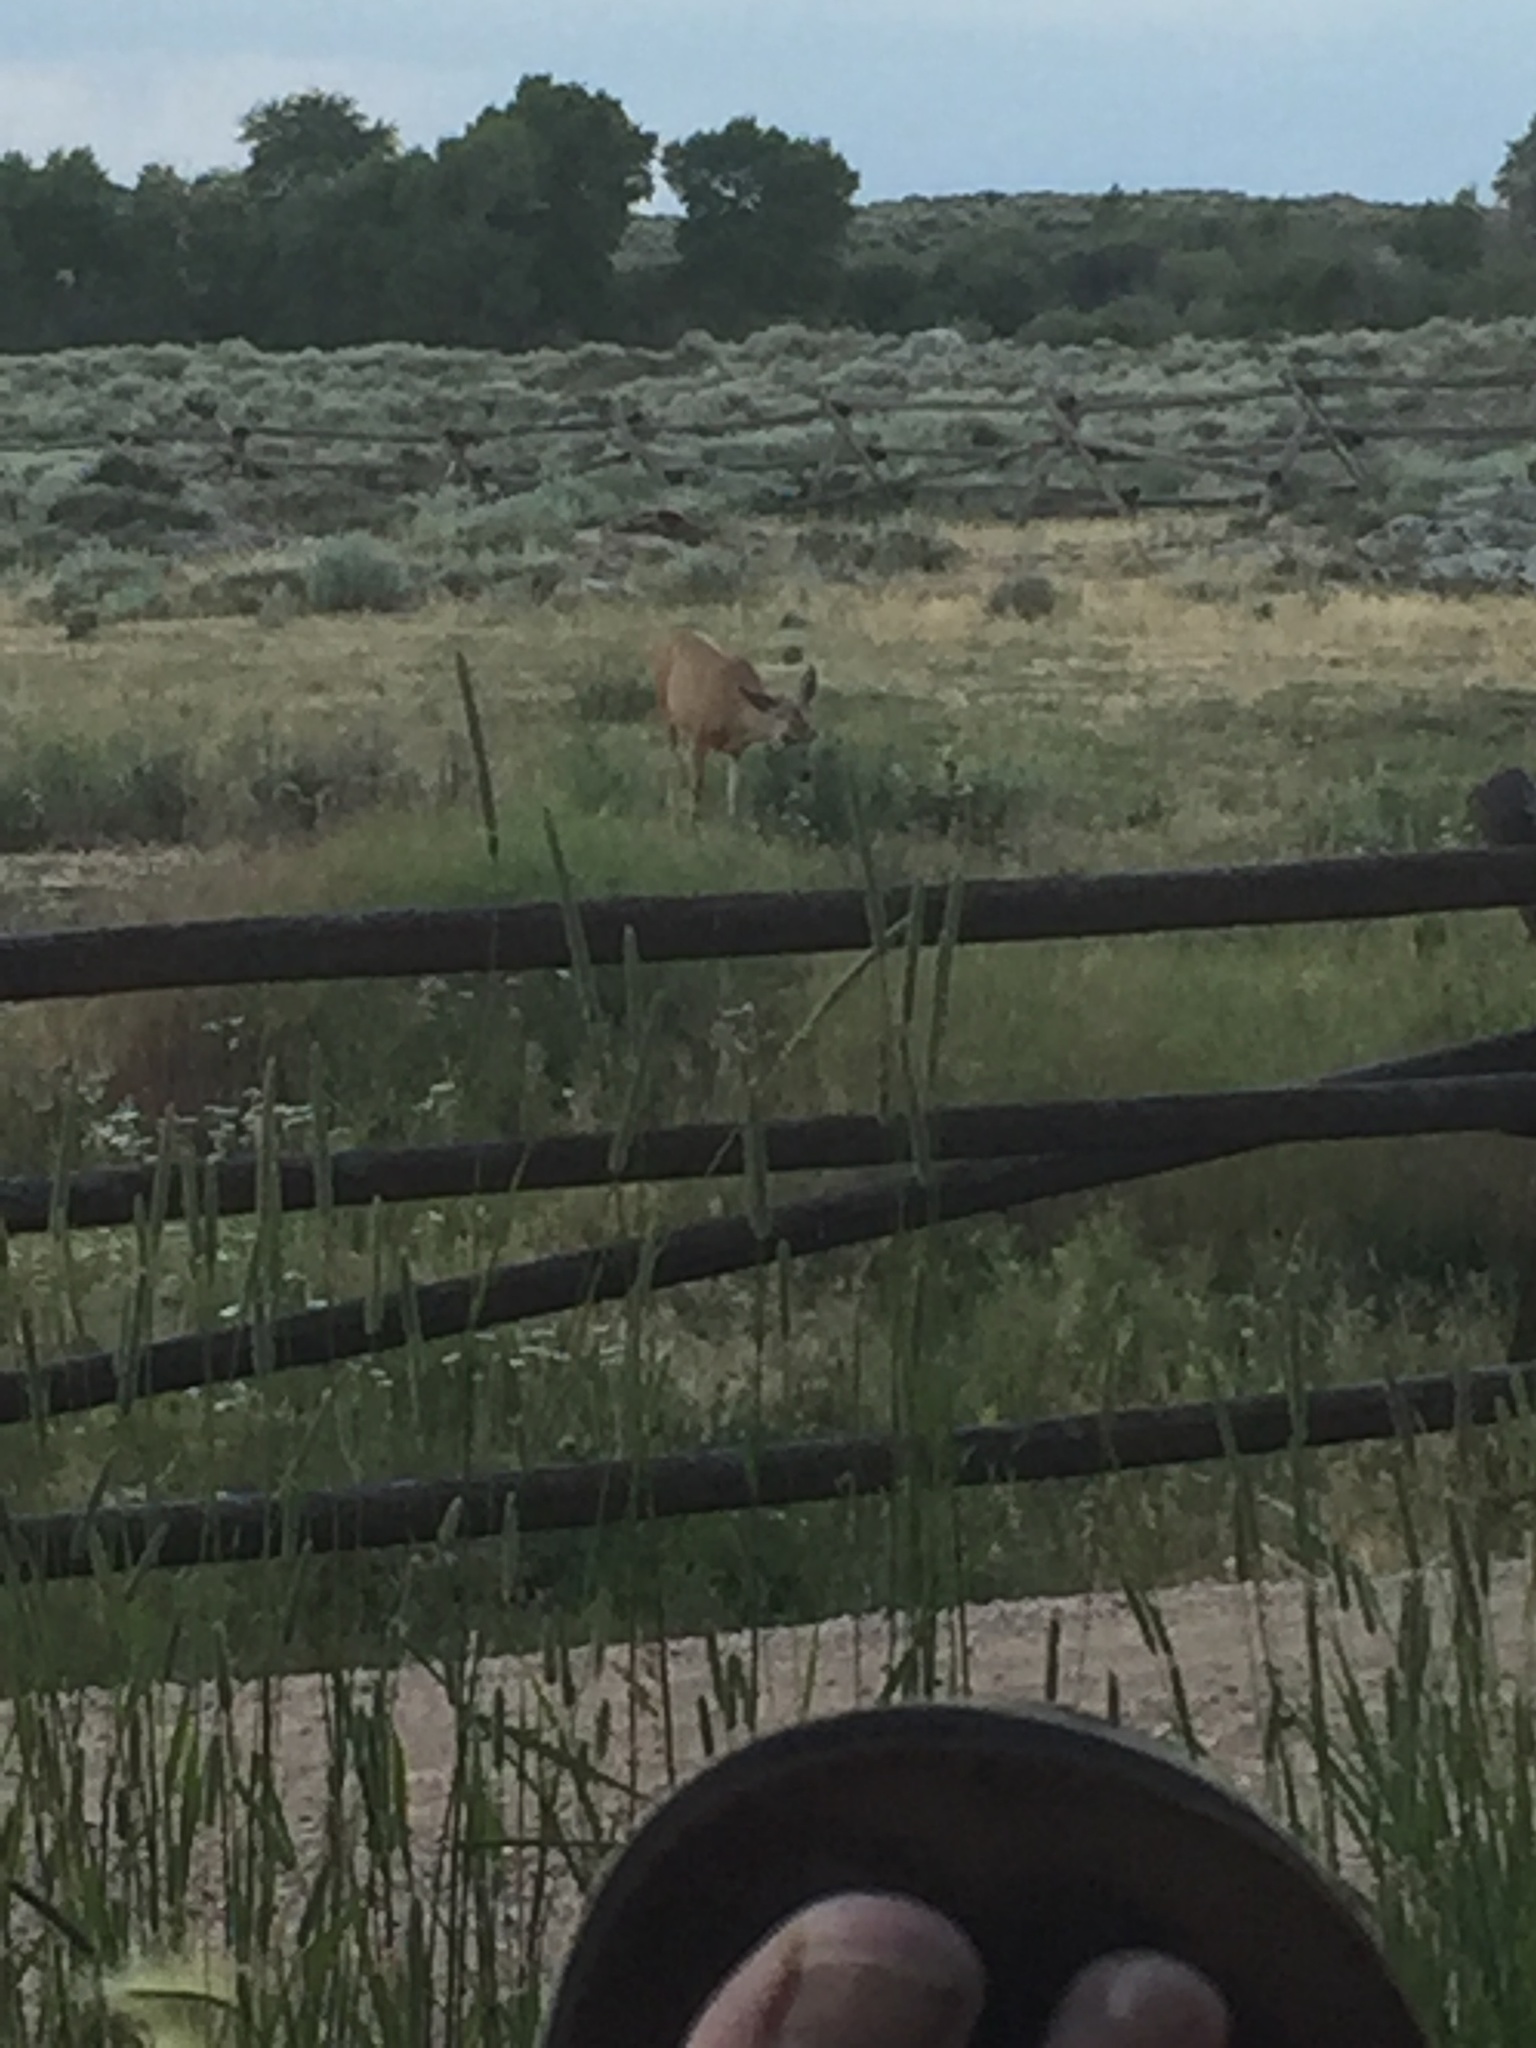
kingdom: Animalia
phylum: Chordata
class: Mammalia
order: Artiodactyla
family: Cervidae
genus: Odocoileus
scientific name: Odocoileus hemionus
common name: Mule deer
